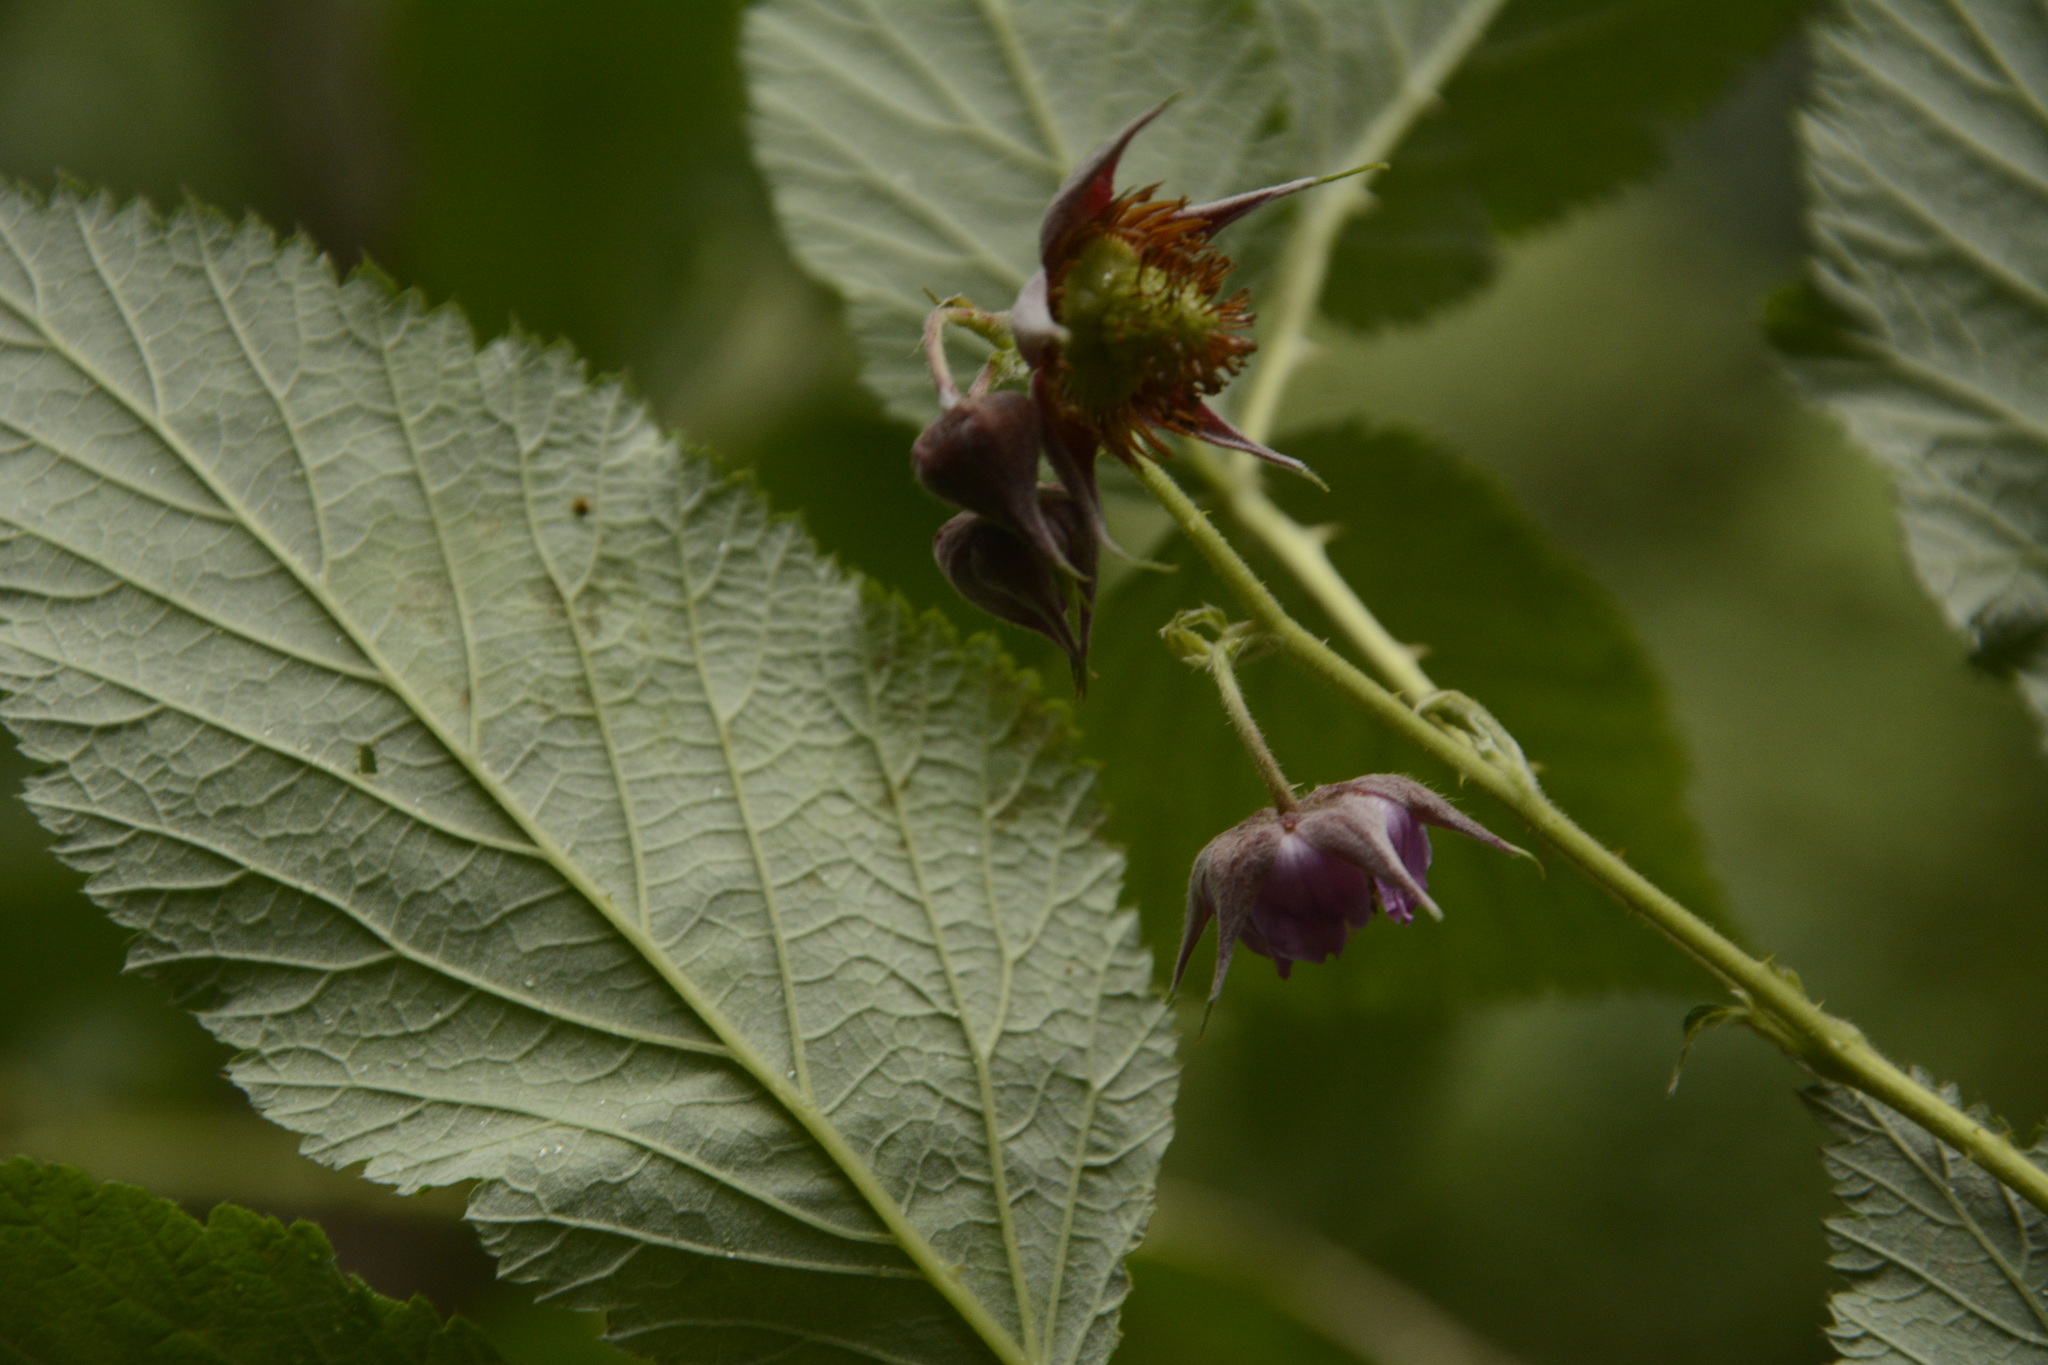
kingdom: Plantae
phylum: Tracheophyta
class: Magnoliopsida
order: Rosales
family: Rosaceae
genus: Rubus
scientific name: Rubus pedunculosus
